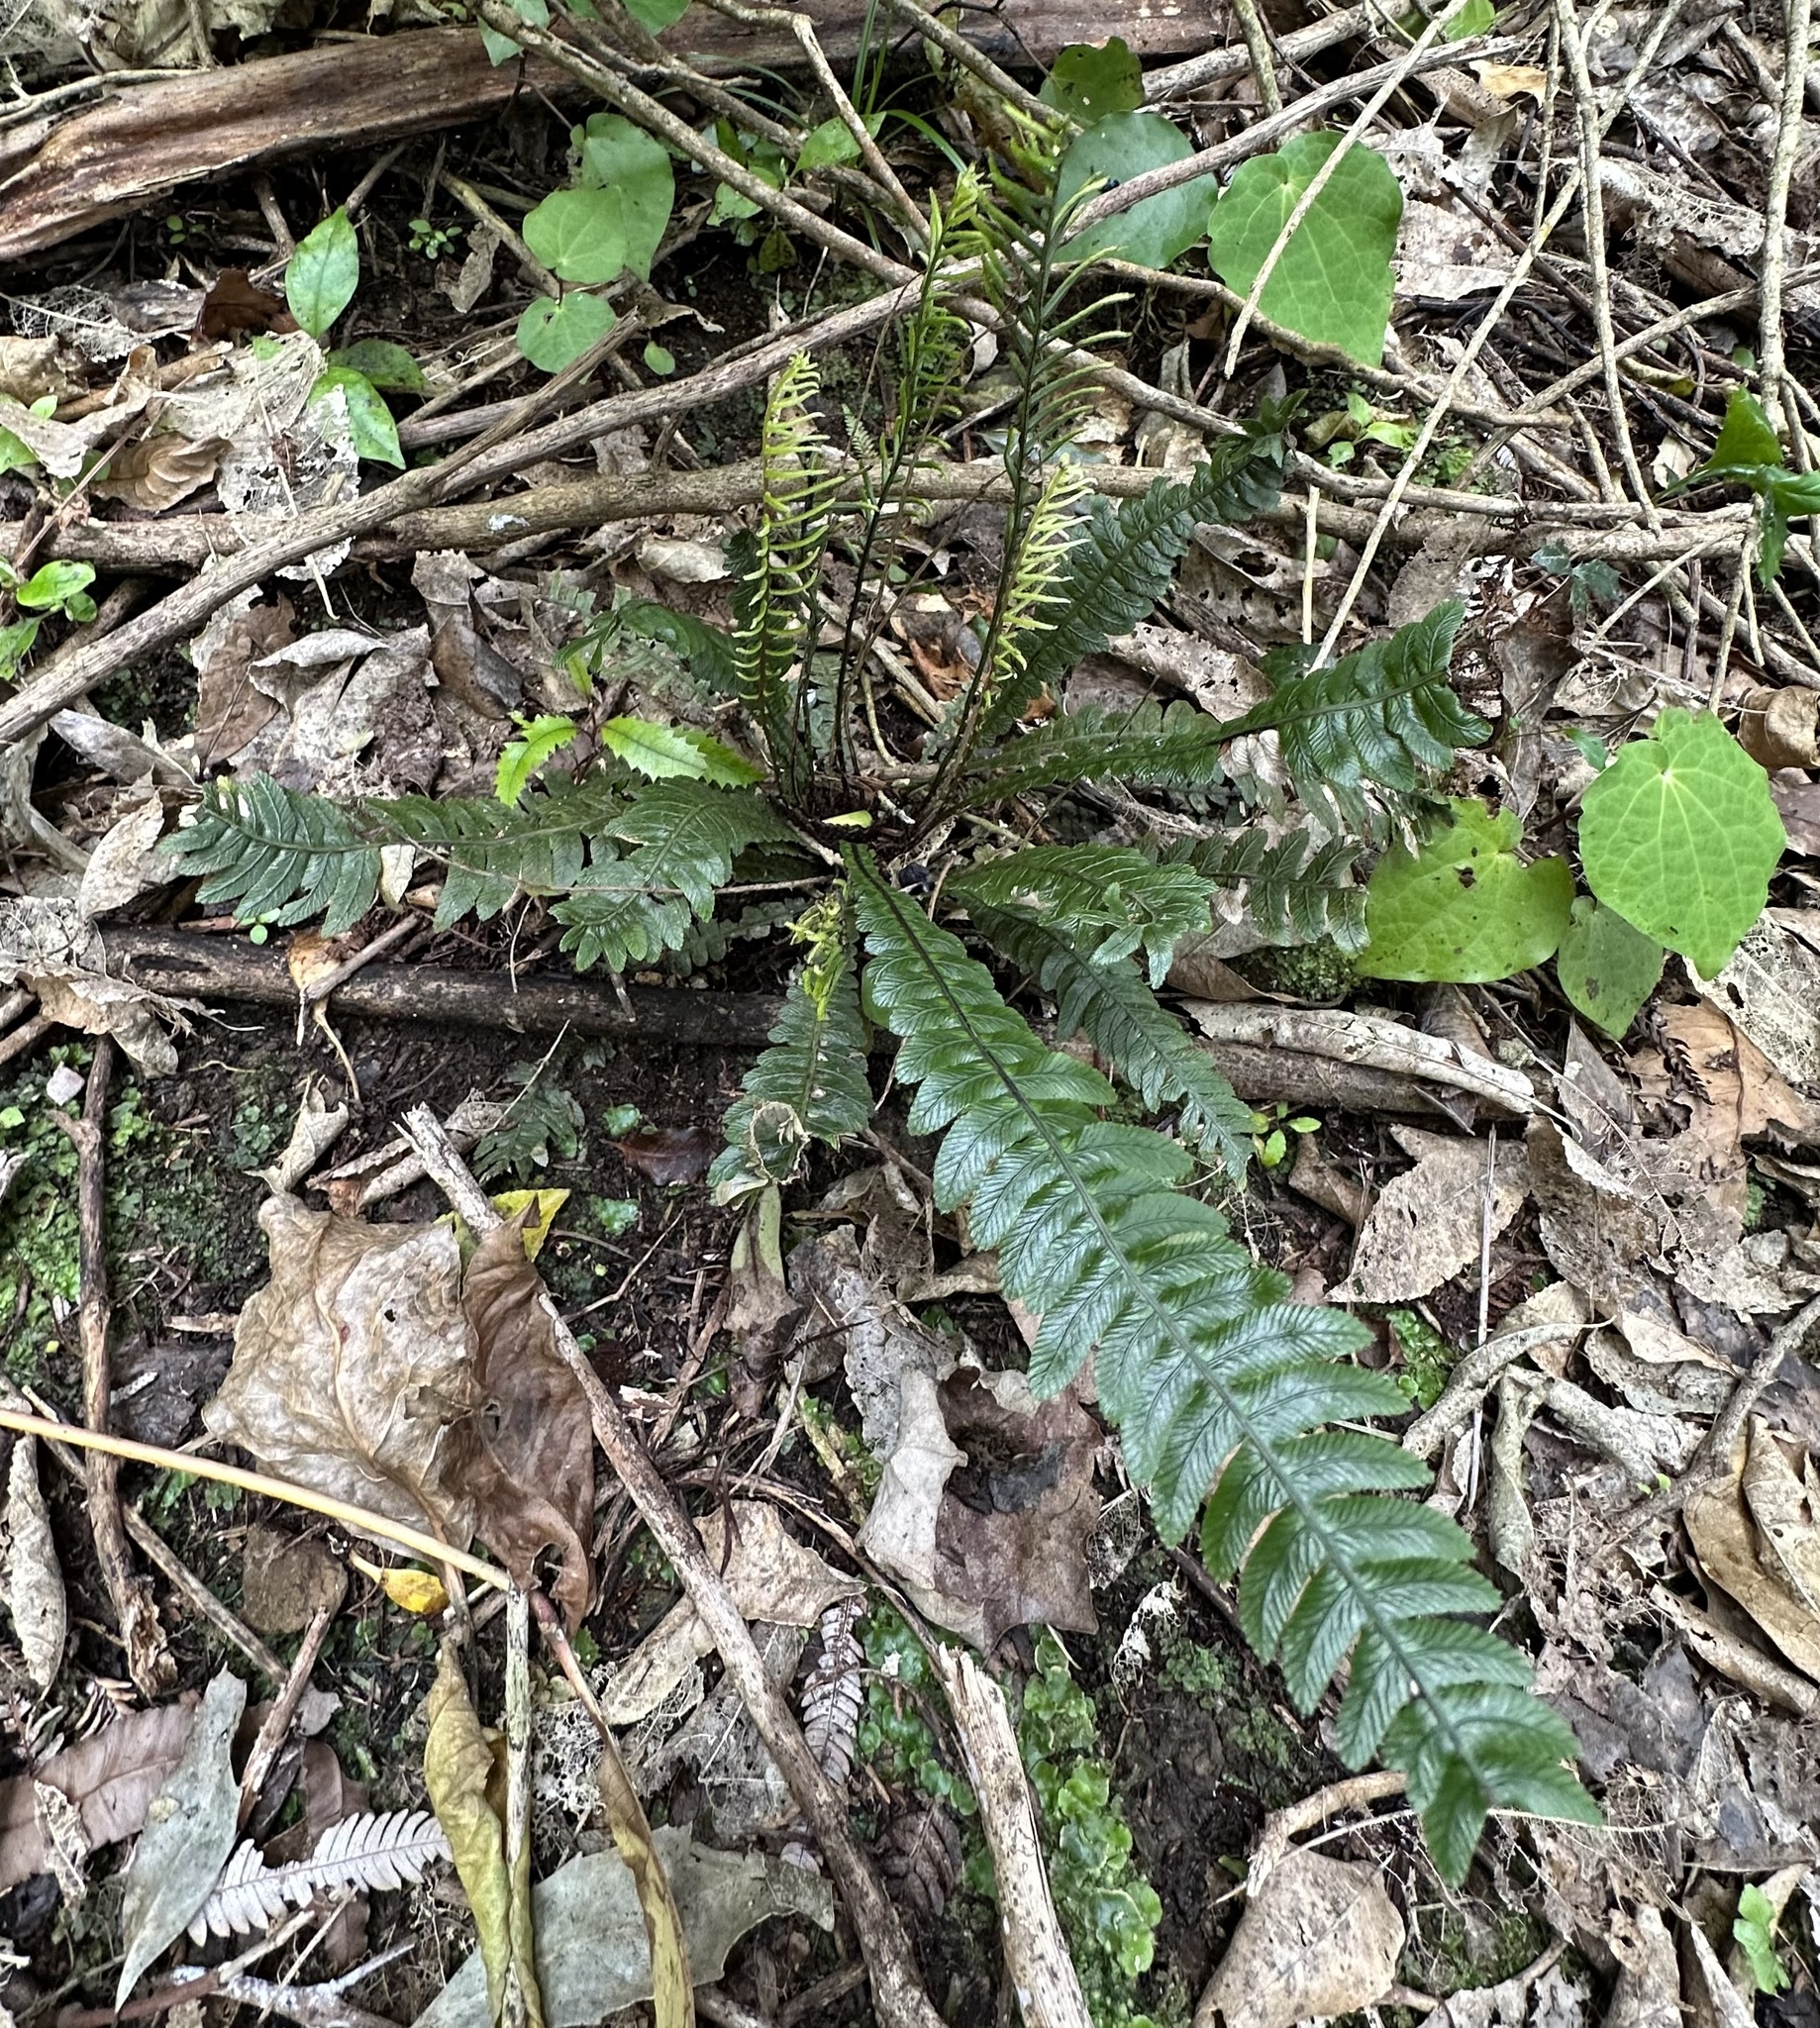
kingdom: Plantae
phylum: Tracheophyta
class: Polypodiopsida
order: Polypodiales
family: Blechnaceae
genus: Austroblechnum
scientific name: Austroblechnum lanceolatum
